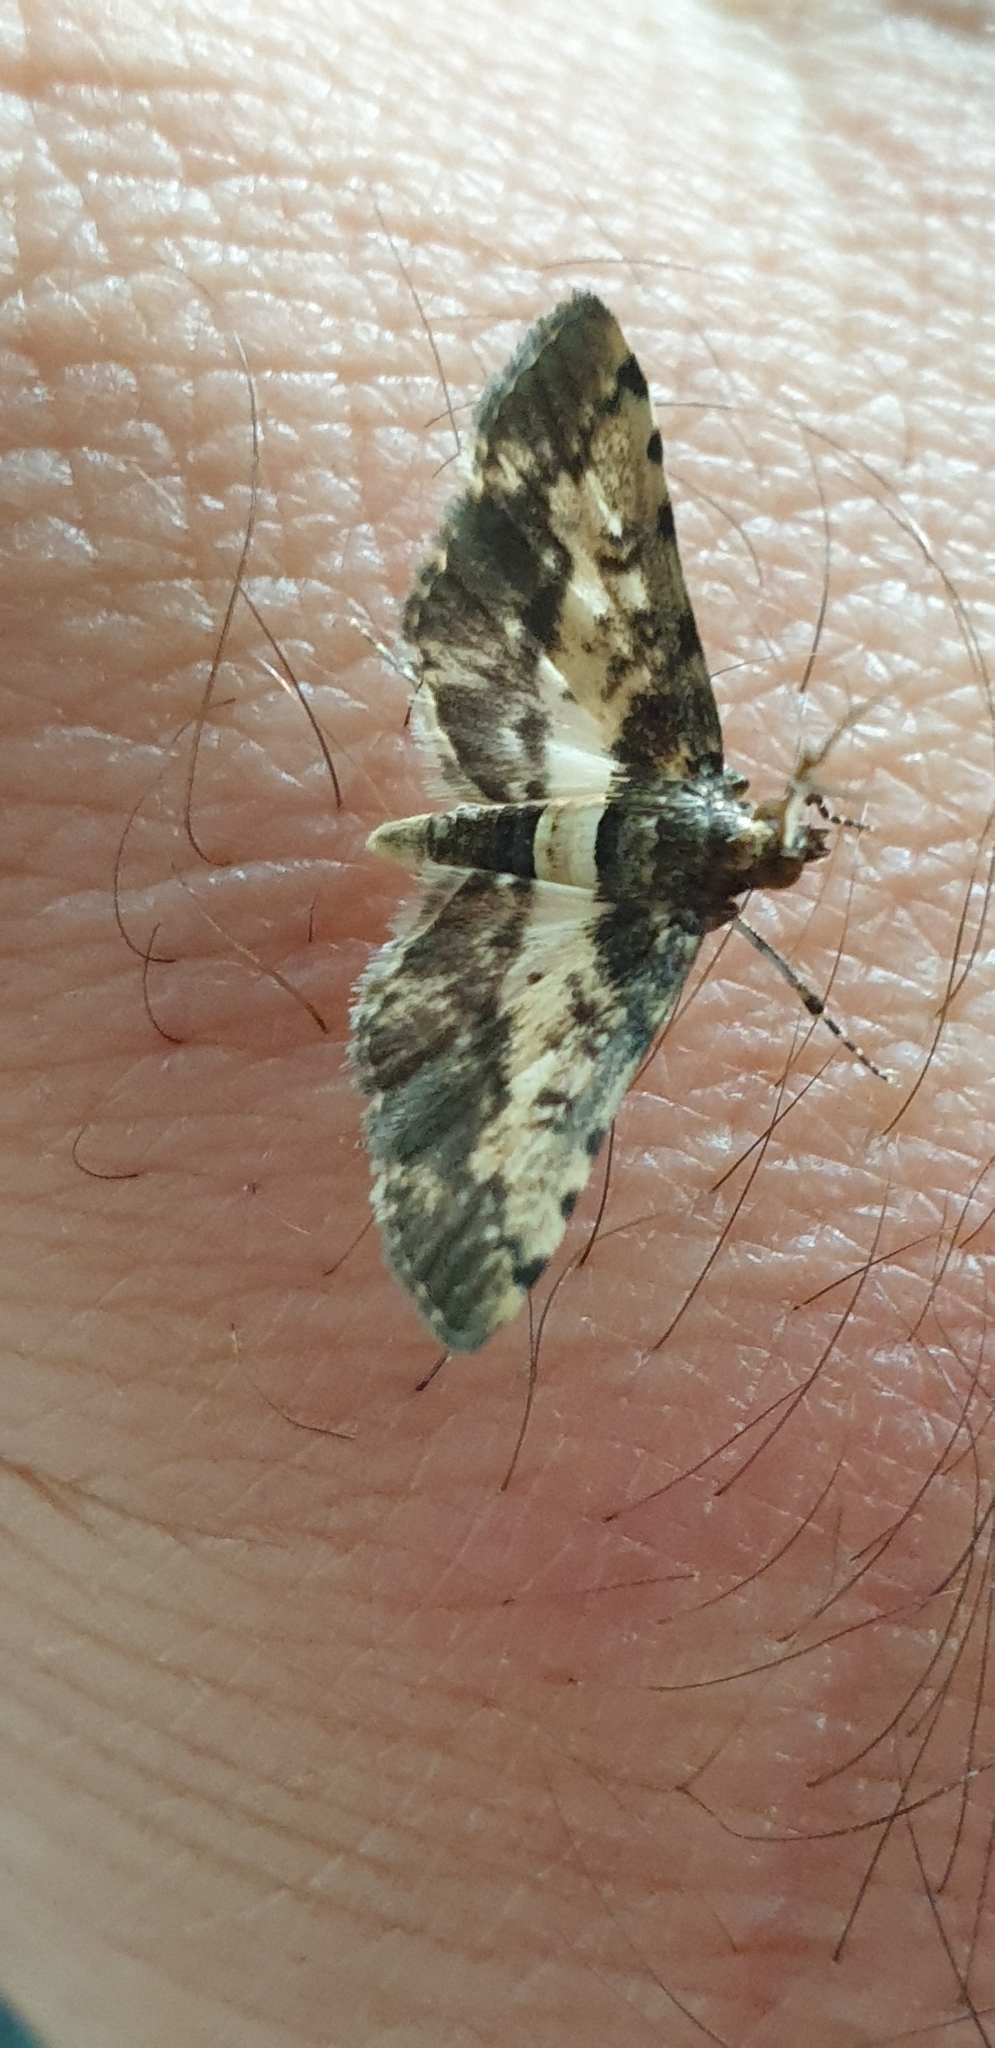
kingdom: Animalia
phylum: Arthropoda
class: Insecta
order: Lepidoptera
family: Crambidae
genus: Nacoleia
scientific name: Nacoleia amphicedalis
